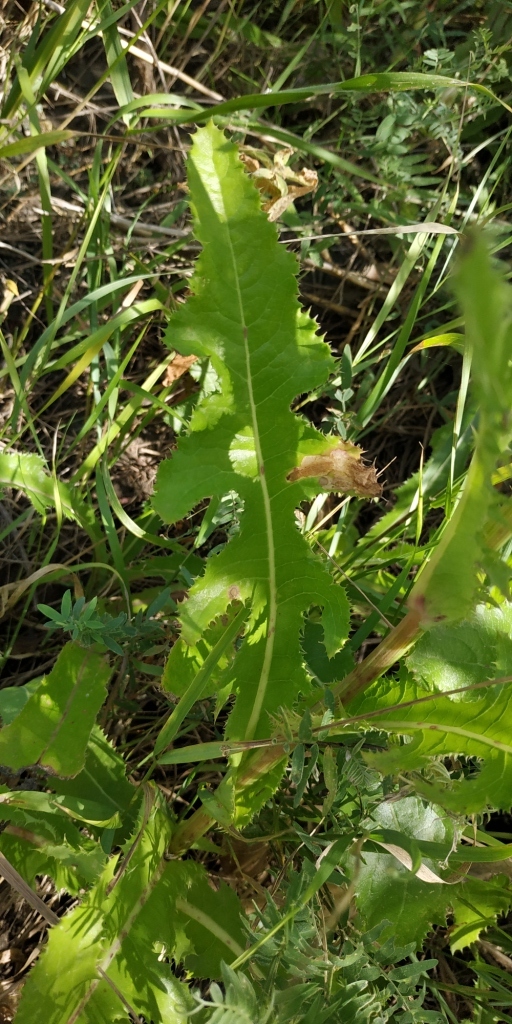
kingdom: Plantae
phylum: Tracheophyta
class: Magnoliopsida
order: Asterales
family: Asteraceae
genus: Sonchus
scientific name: Sonchus arvensis
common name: Perennial sow-thistle
